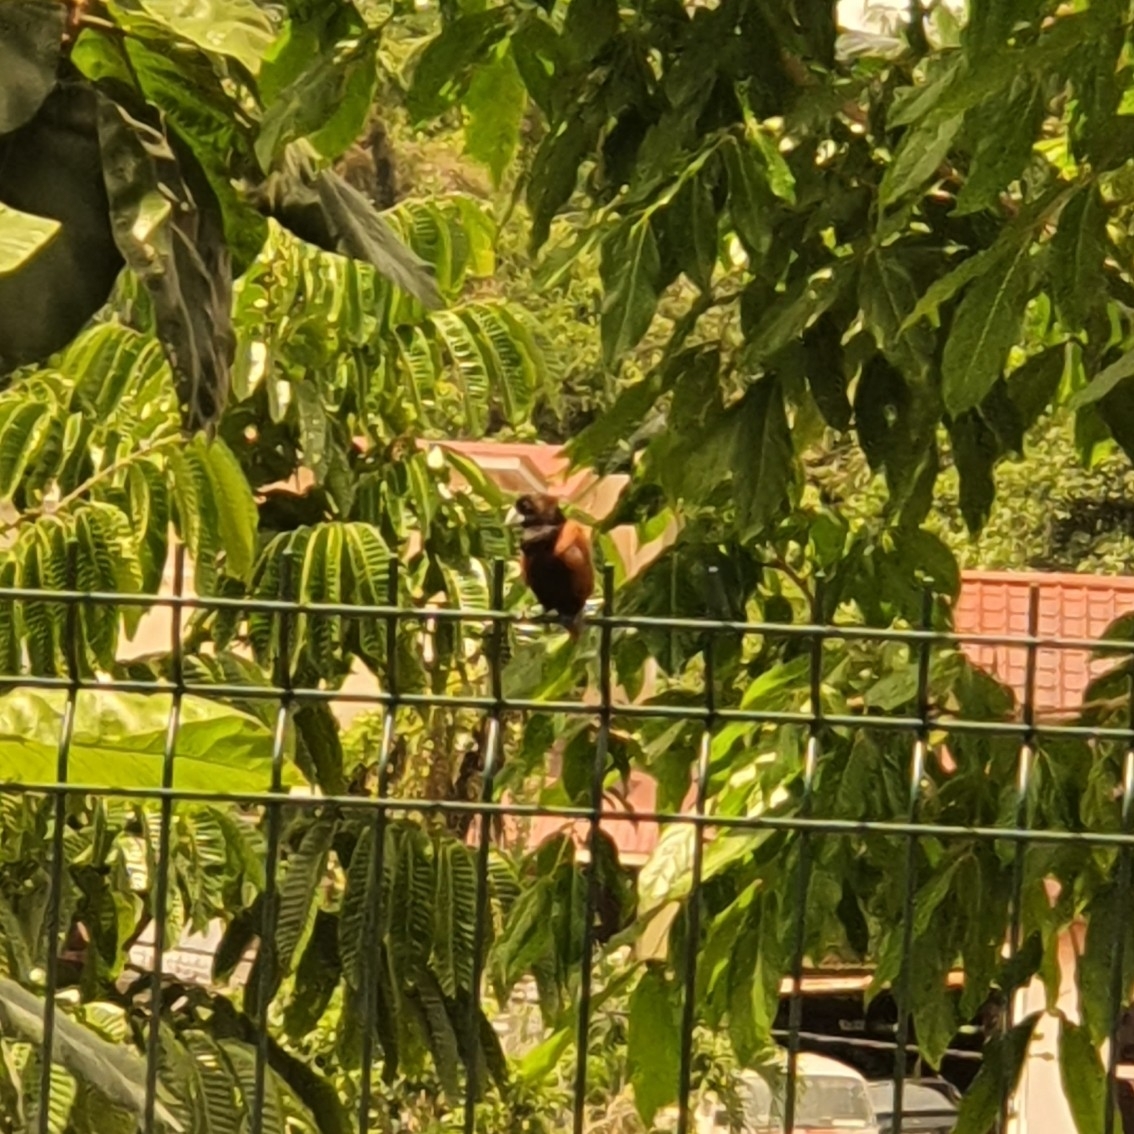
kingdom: Animalia
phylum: Chordata
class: Aves
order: Passeriformes
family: Estrildidae
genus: Lonchura
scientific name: Lonchura atricapilla
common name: Chestnut munia
